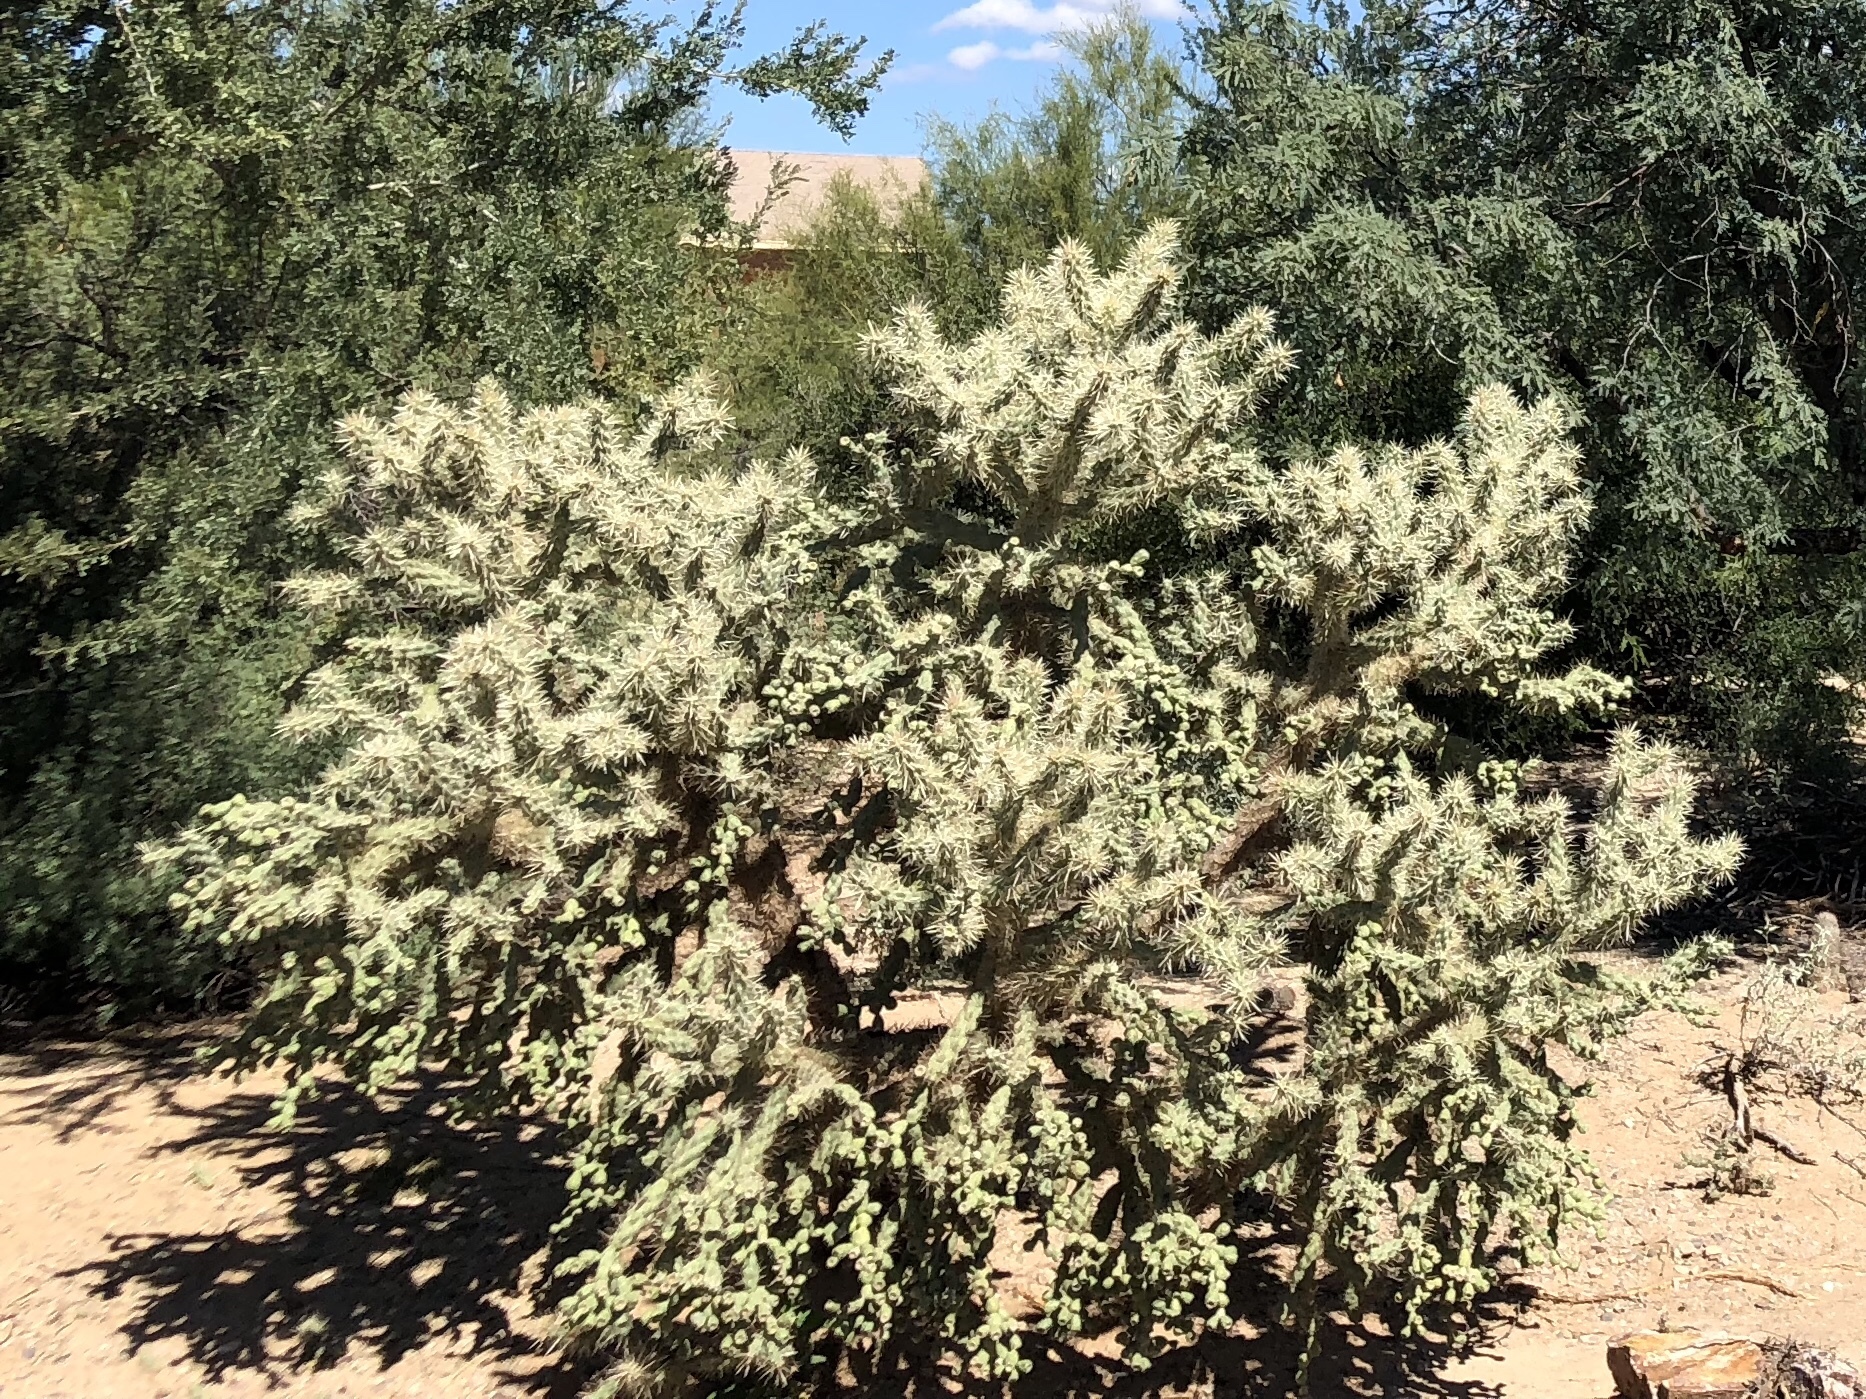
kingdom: Plantae
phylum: Tracheophyta
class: Magnoliopsida
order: Caryophyllales
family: Cactaceae
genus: Cylindropuntia
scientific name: Cylindropuntia fulgida
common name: Jumping cholla
